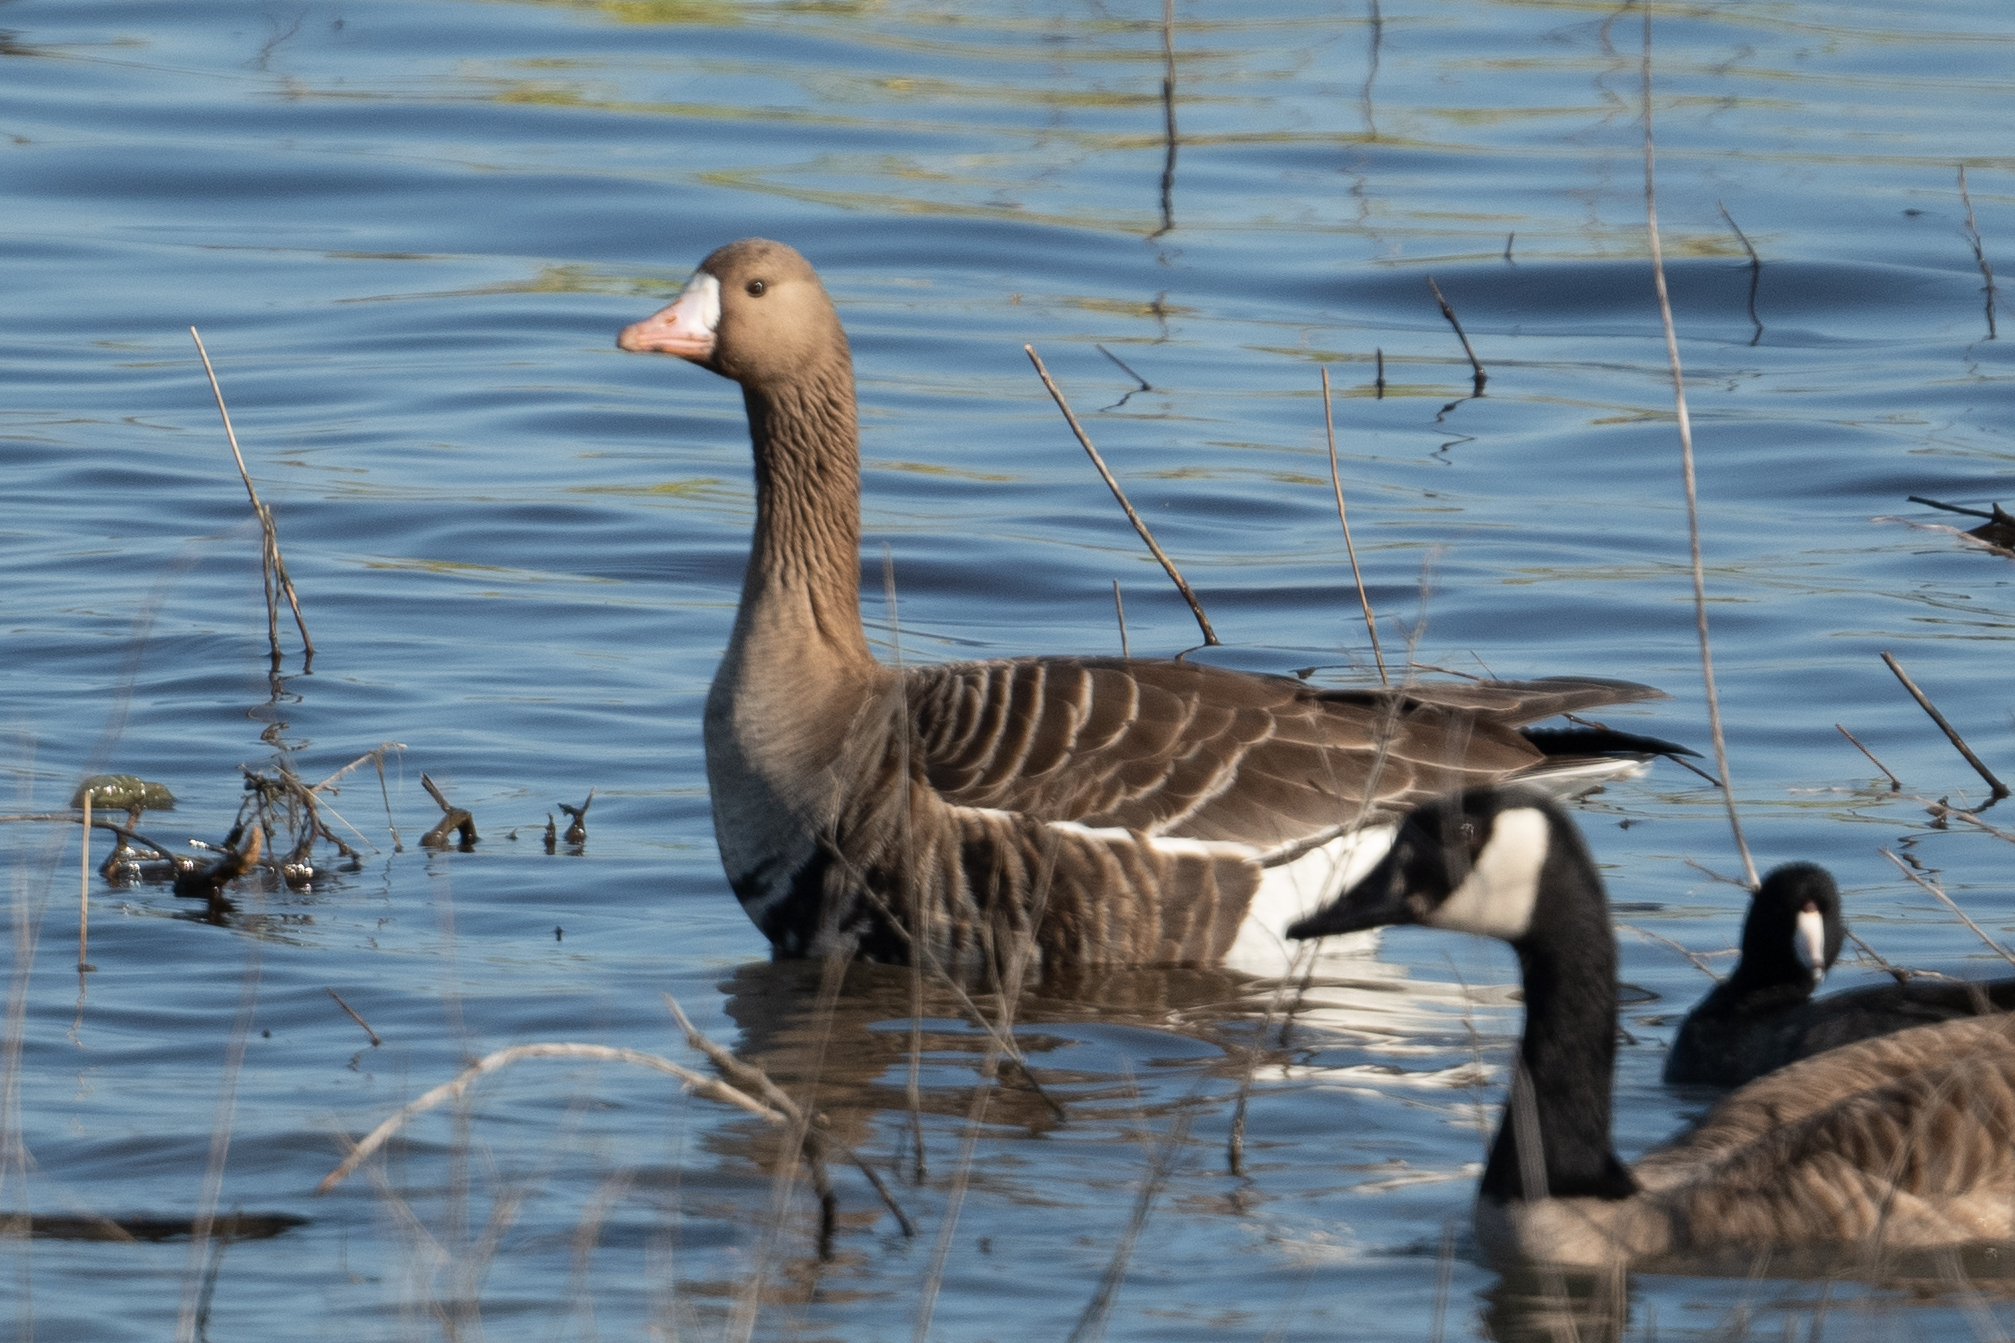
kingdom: Animalia
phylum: Chordata
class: Aves
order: Anseriformes
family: Anatidae
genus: Anser
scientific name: Anser albifrons
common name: Greater white-fronted goose
